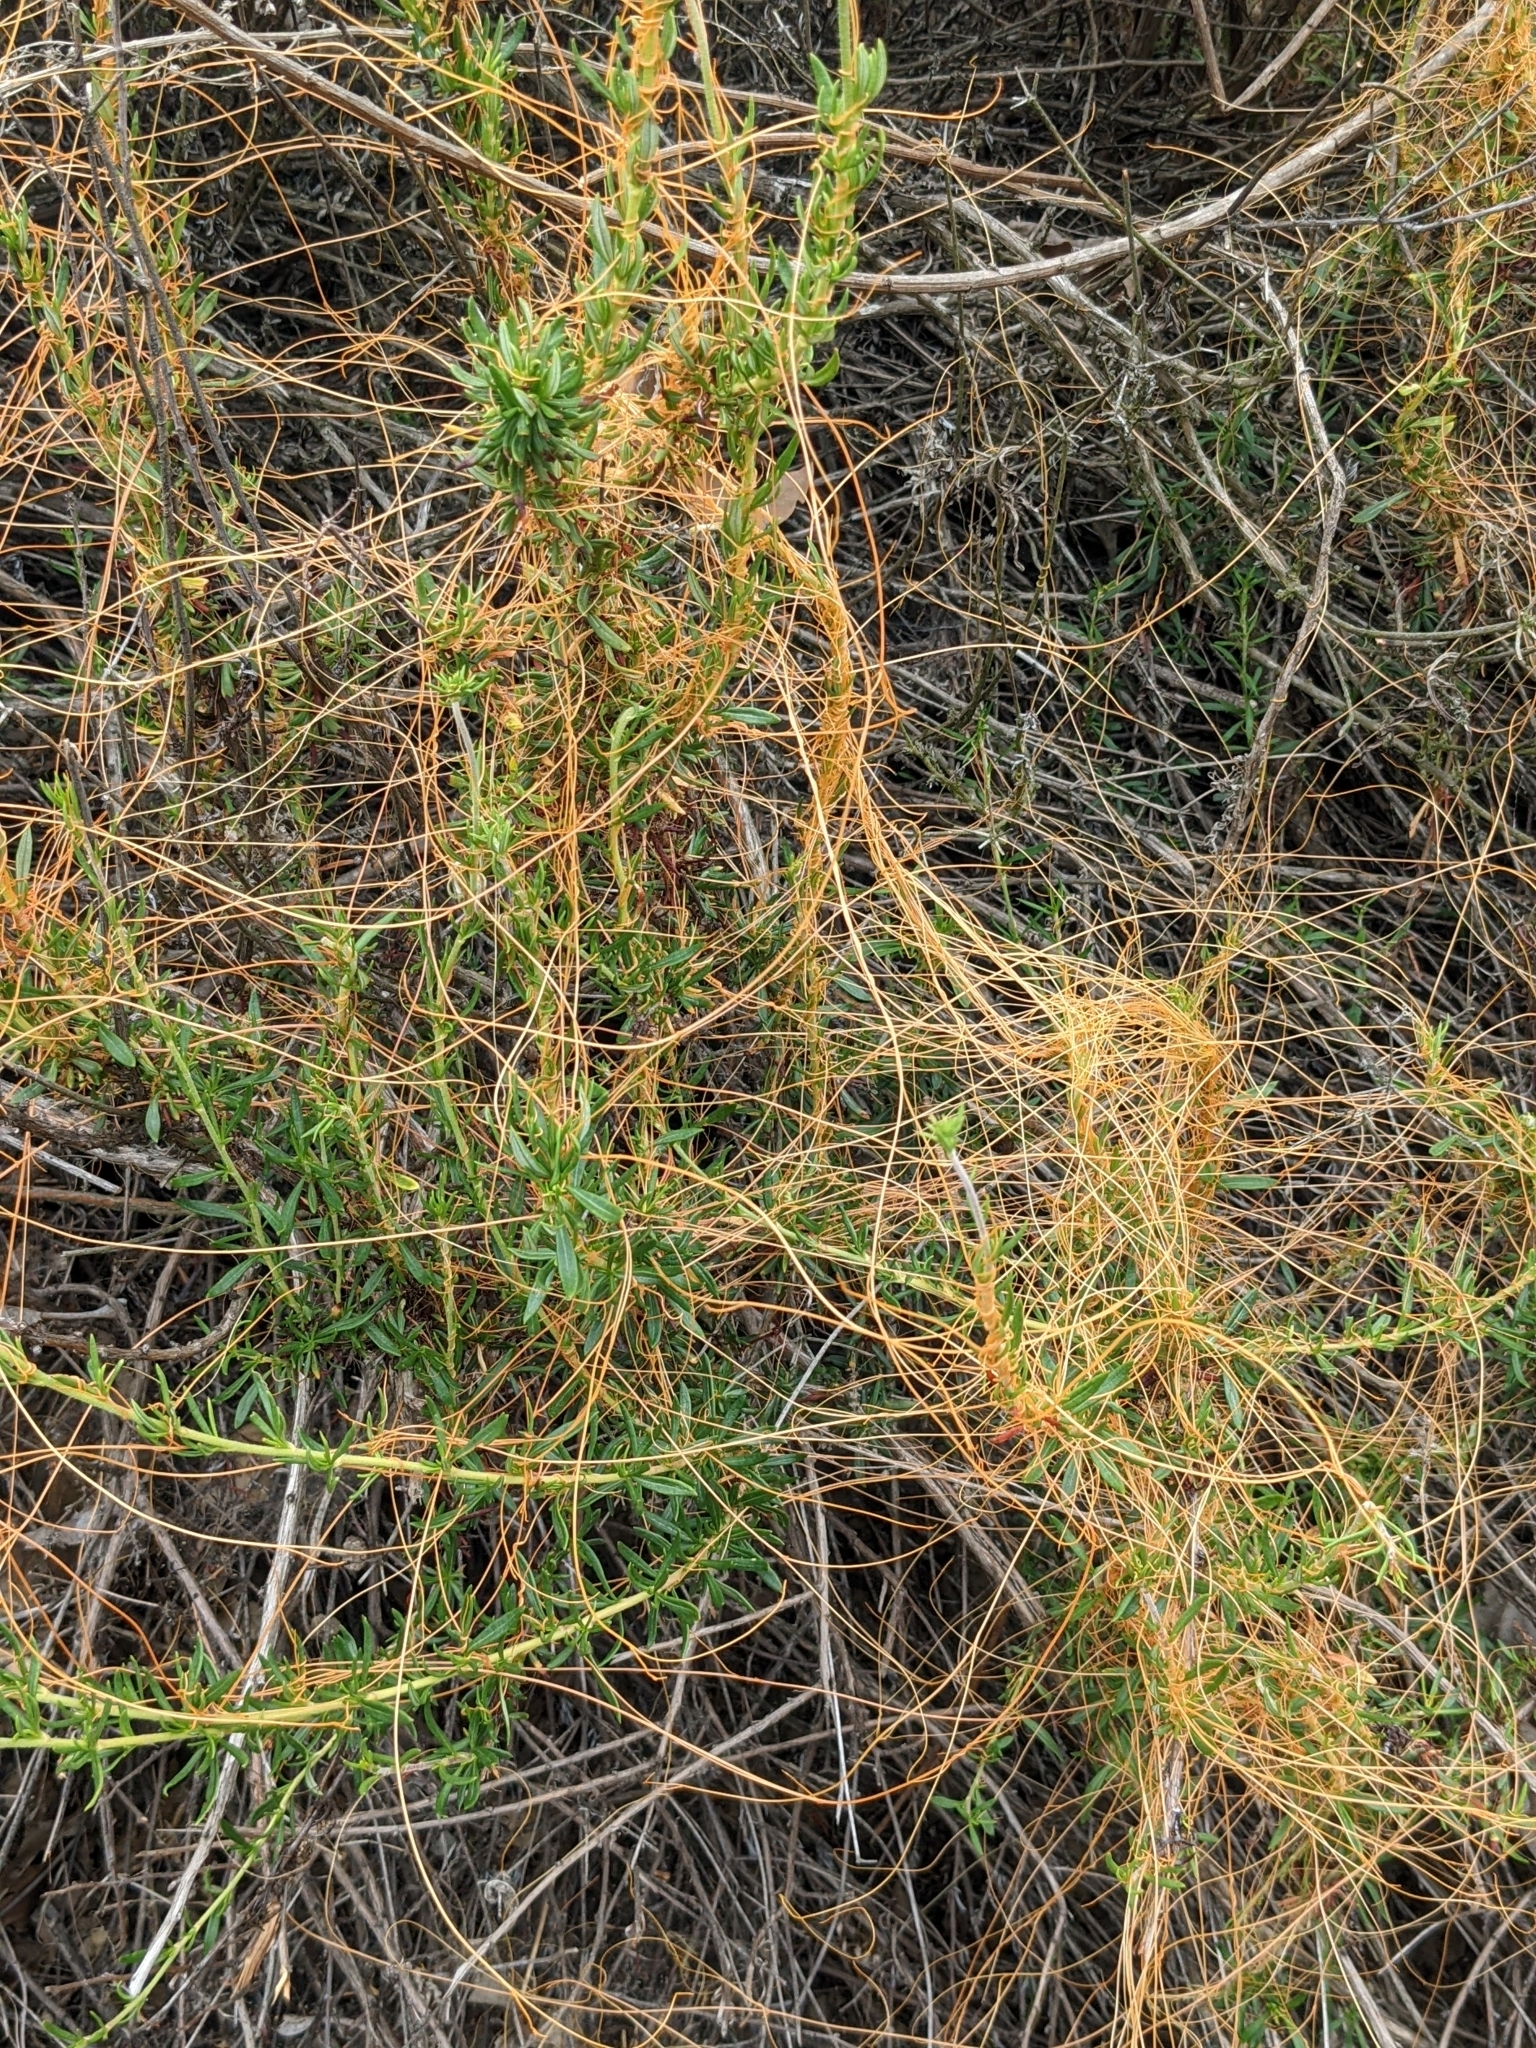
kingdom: Plantae
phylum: Tracheophyta
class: Magnoliopsida
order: Solanales
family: Convolvulaceae
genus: Cuscuta
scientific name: Cuscuta californica
